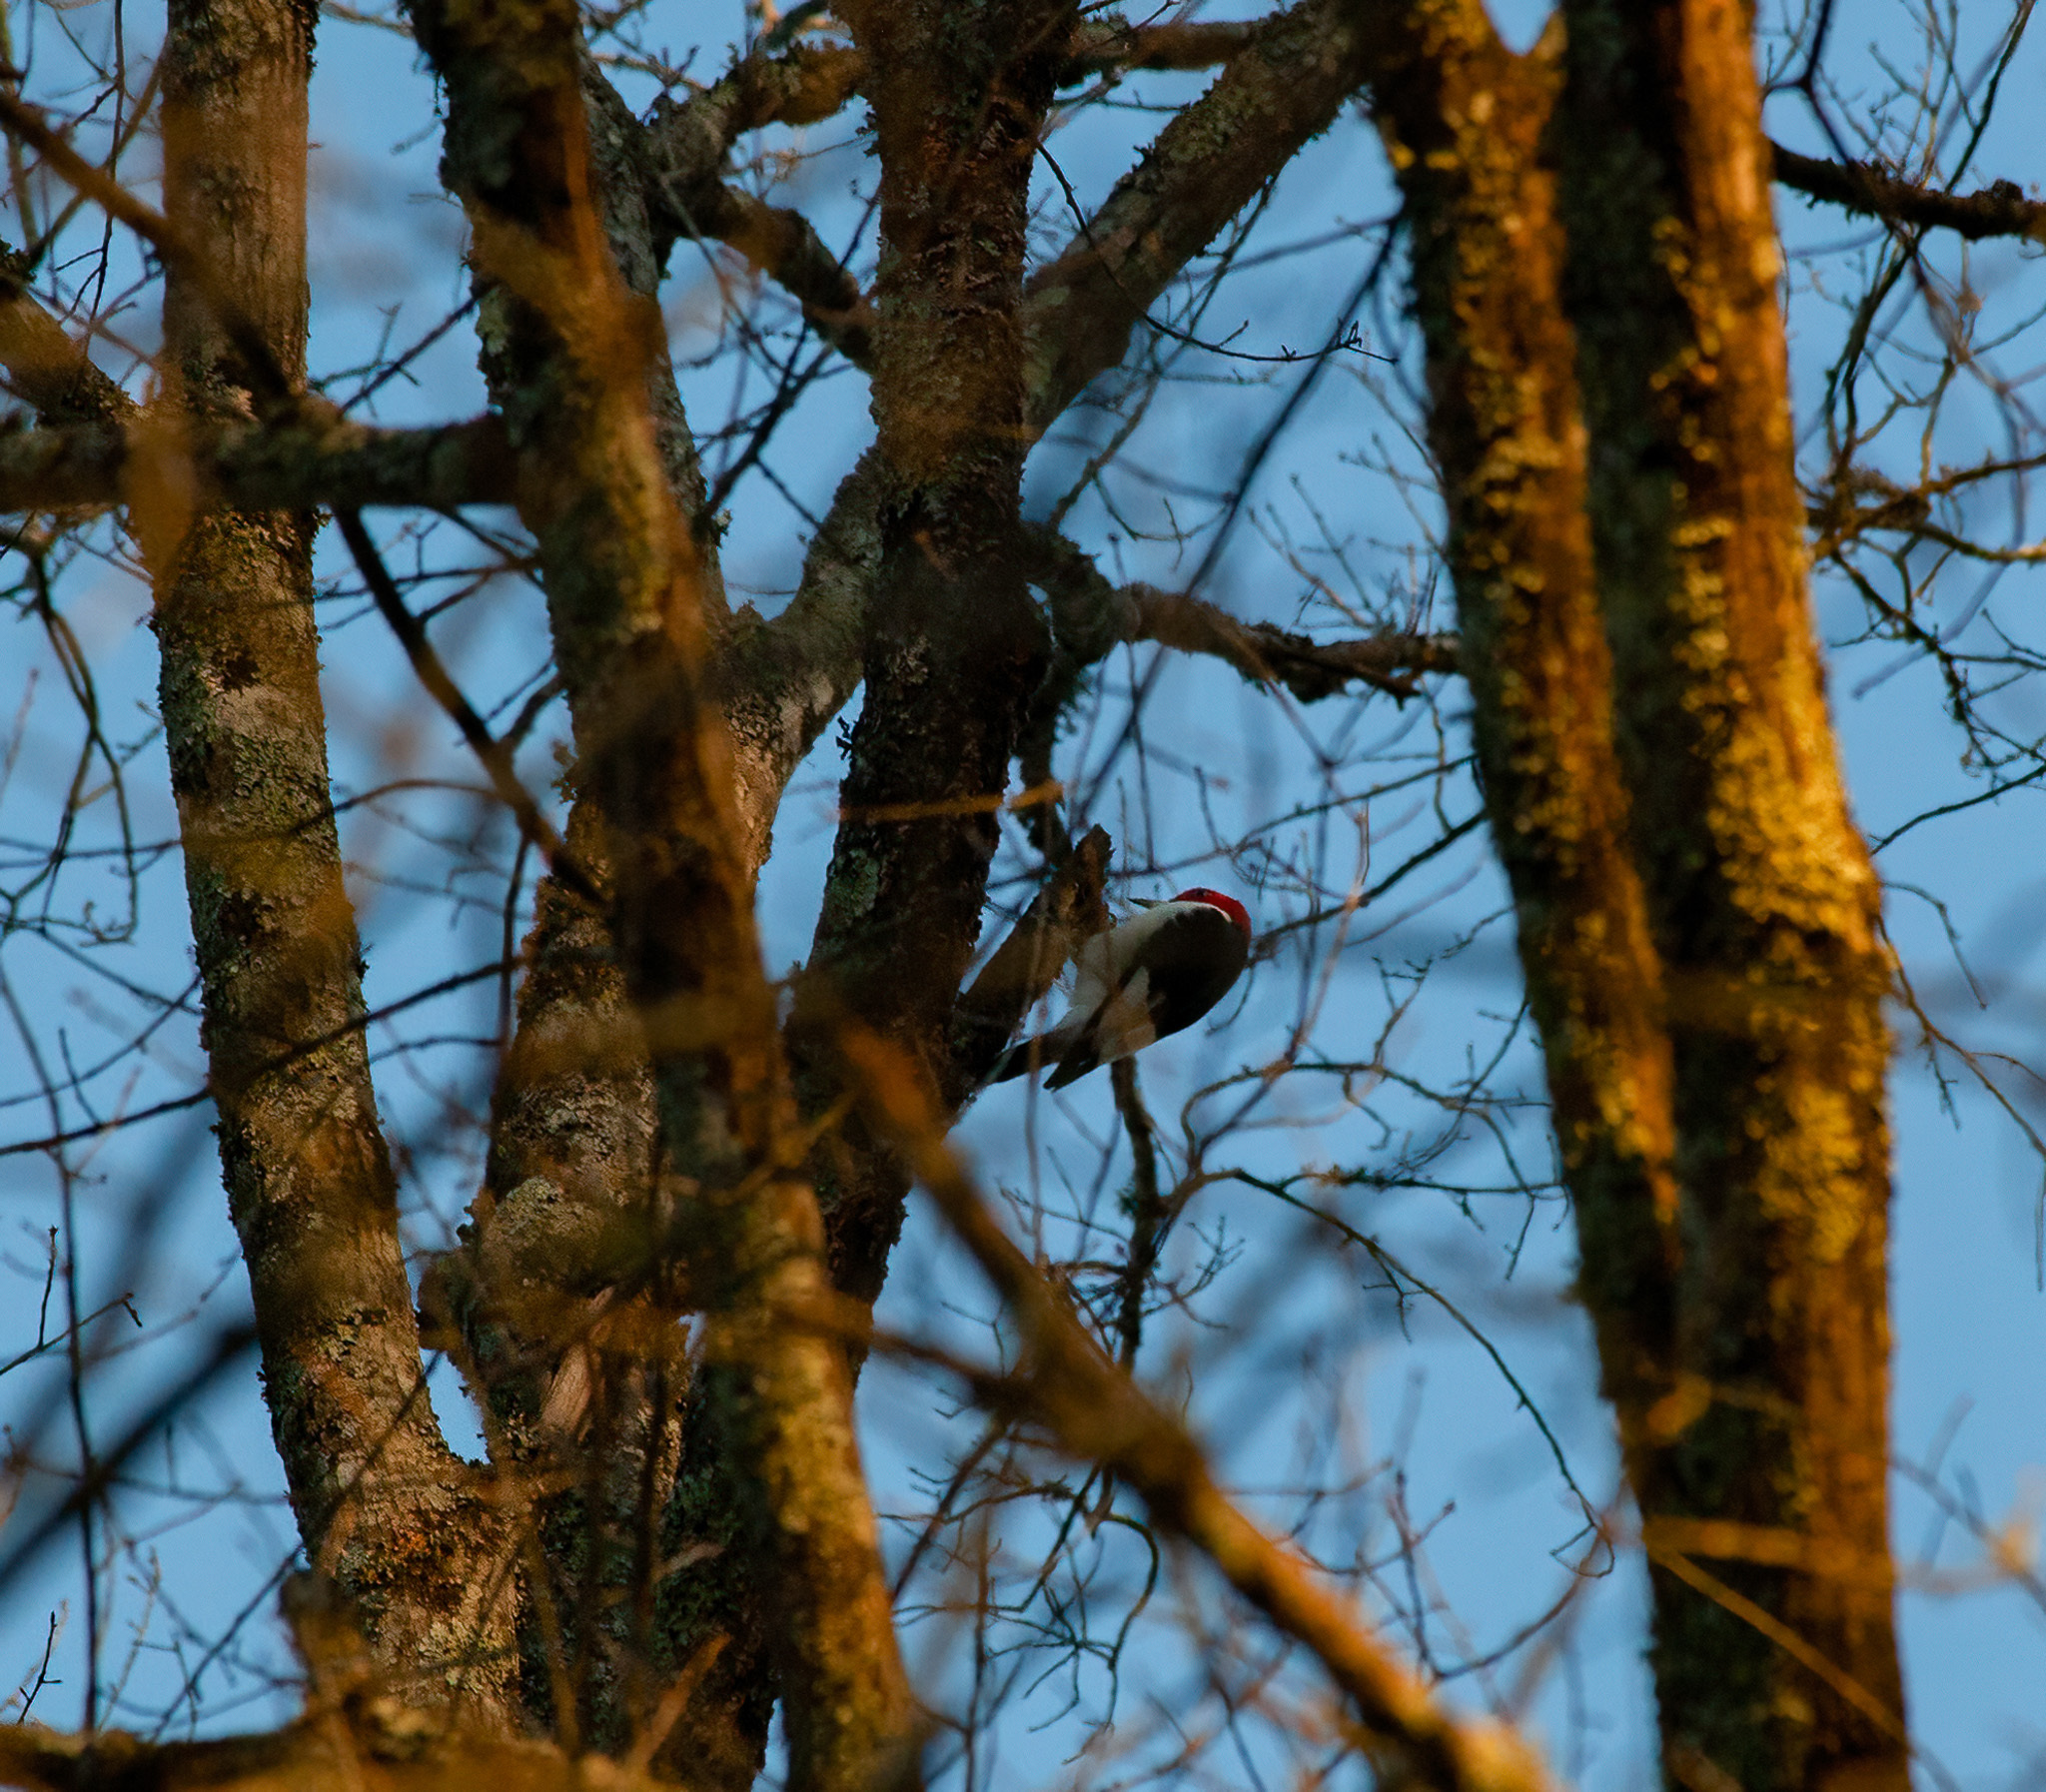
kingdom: Animalia
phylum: Chordata
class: Aves
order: Piciformes
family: Picidae
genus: Melanerpes
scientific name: Melanerpes erythrocephalus
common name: Red-headed woodpecker
